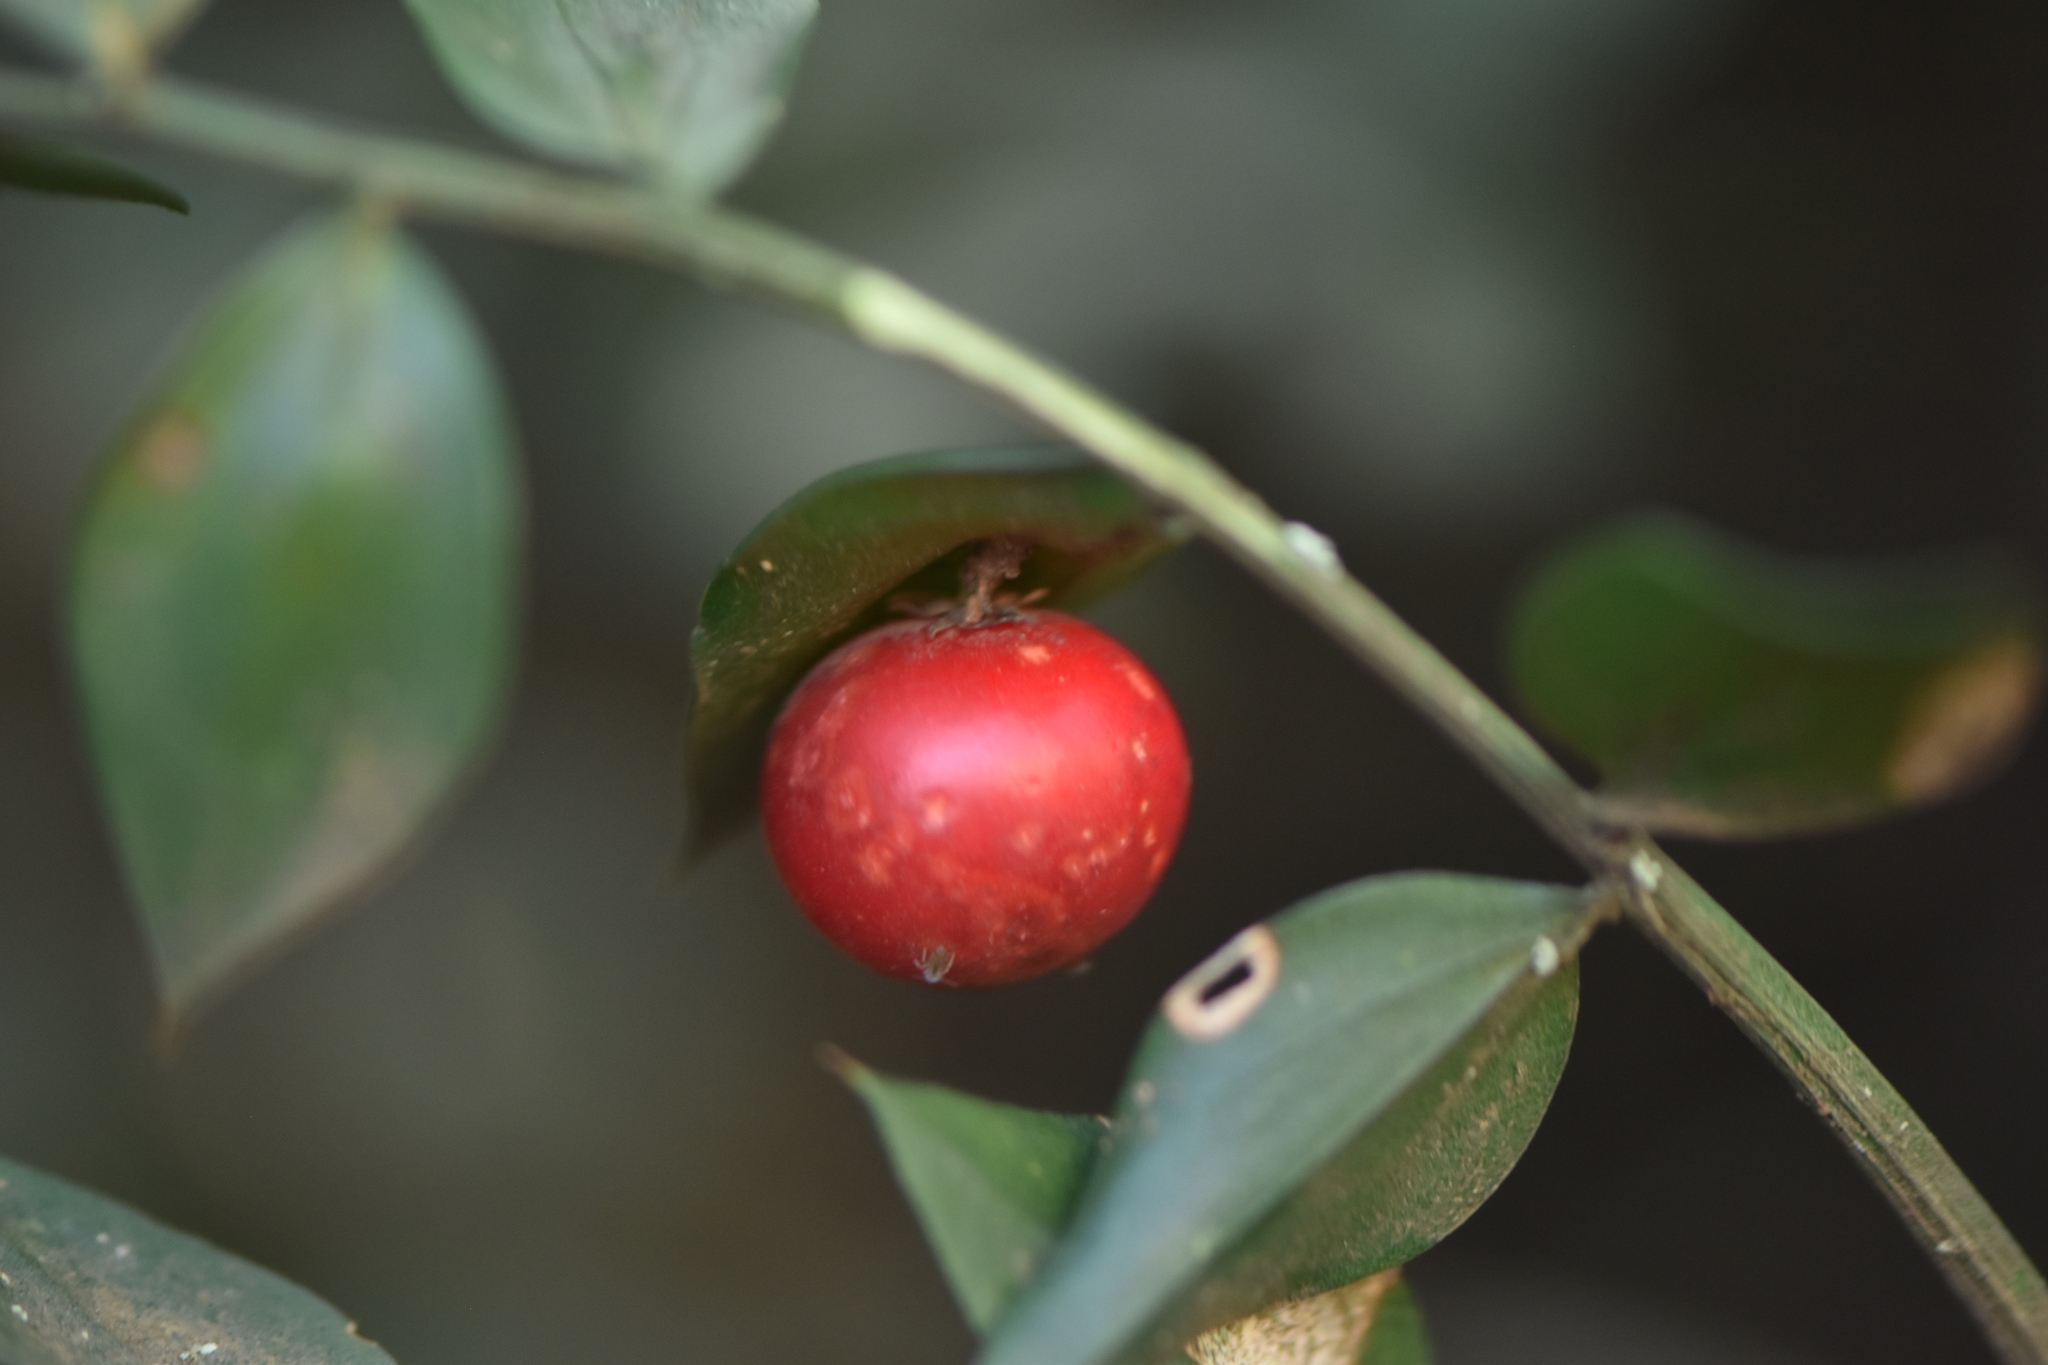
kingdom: Plantae
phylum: Tracheophyta
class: Liliopsida
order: Asparagales
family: Asparagaceae
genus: Ruscus
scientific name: Ruscus aculeatus
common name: Butcher's-broom
